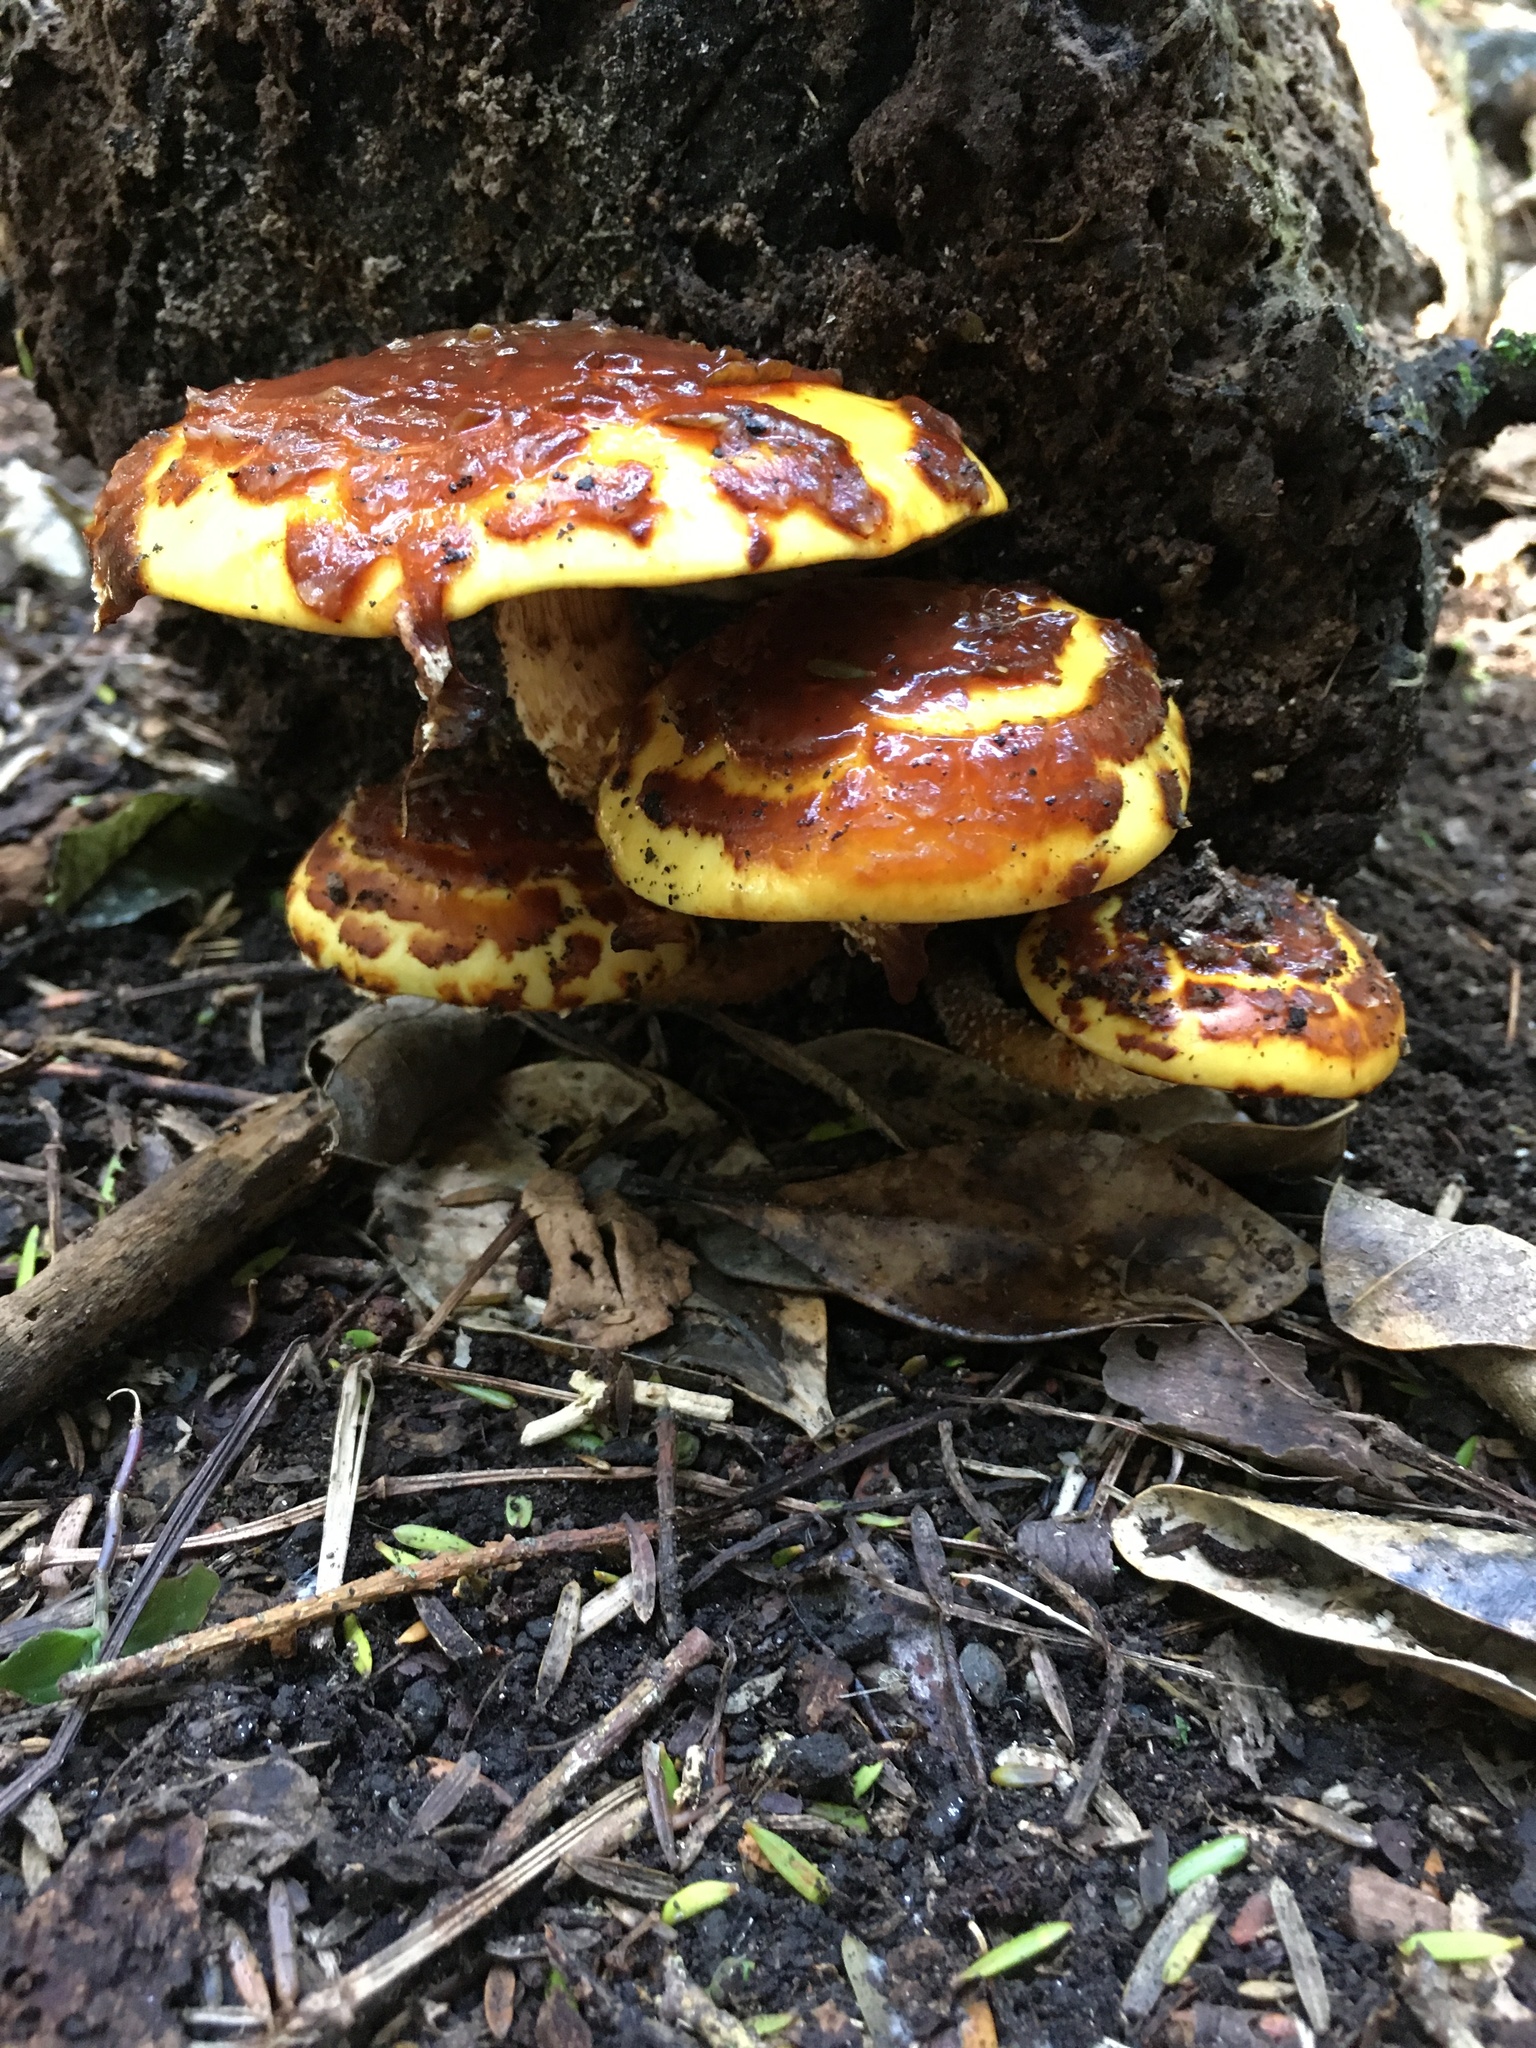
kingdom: Fungi
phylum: Basidiomycota
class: Agaricomycetes
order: Agaricales
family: Strophariaceae
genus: Pholiota
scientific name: Pholiota glutinosa
